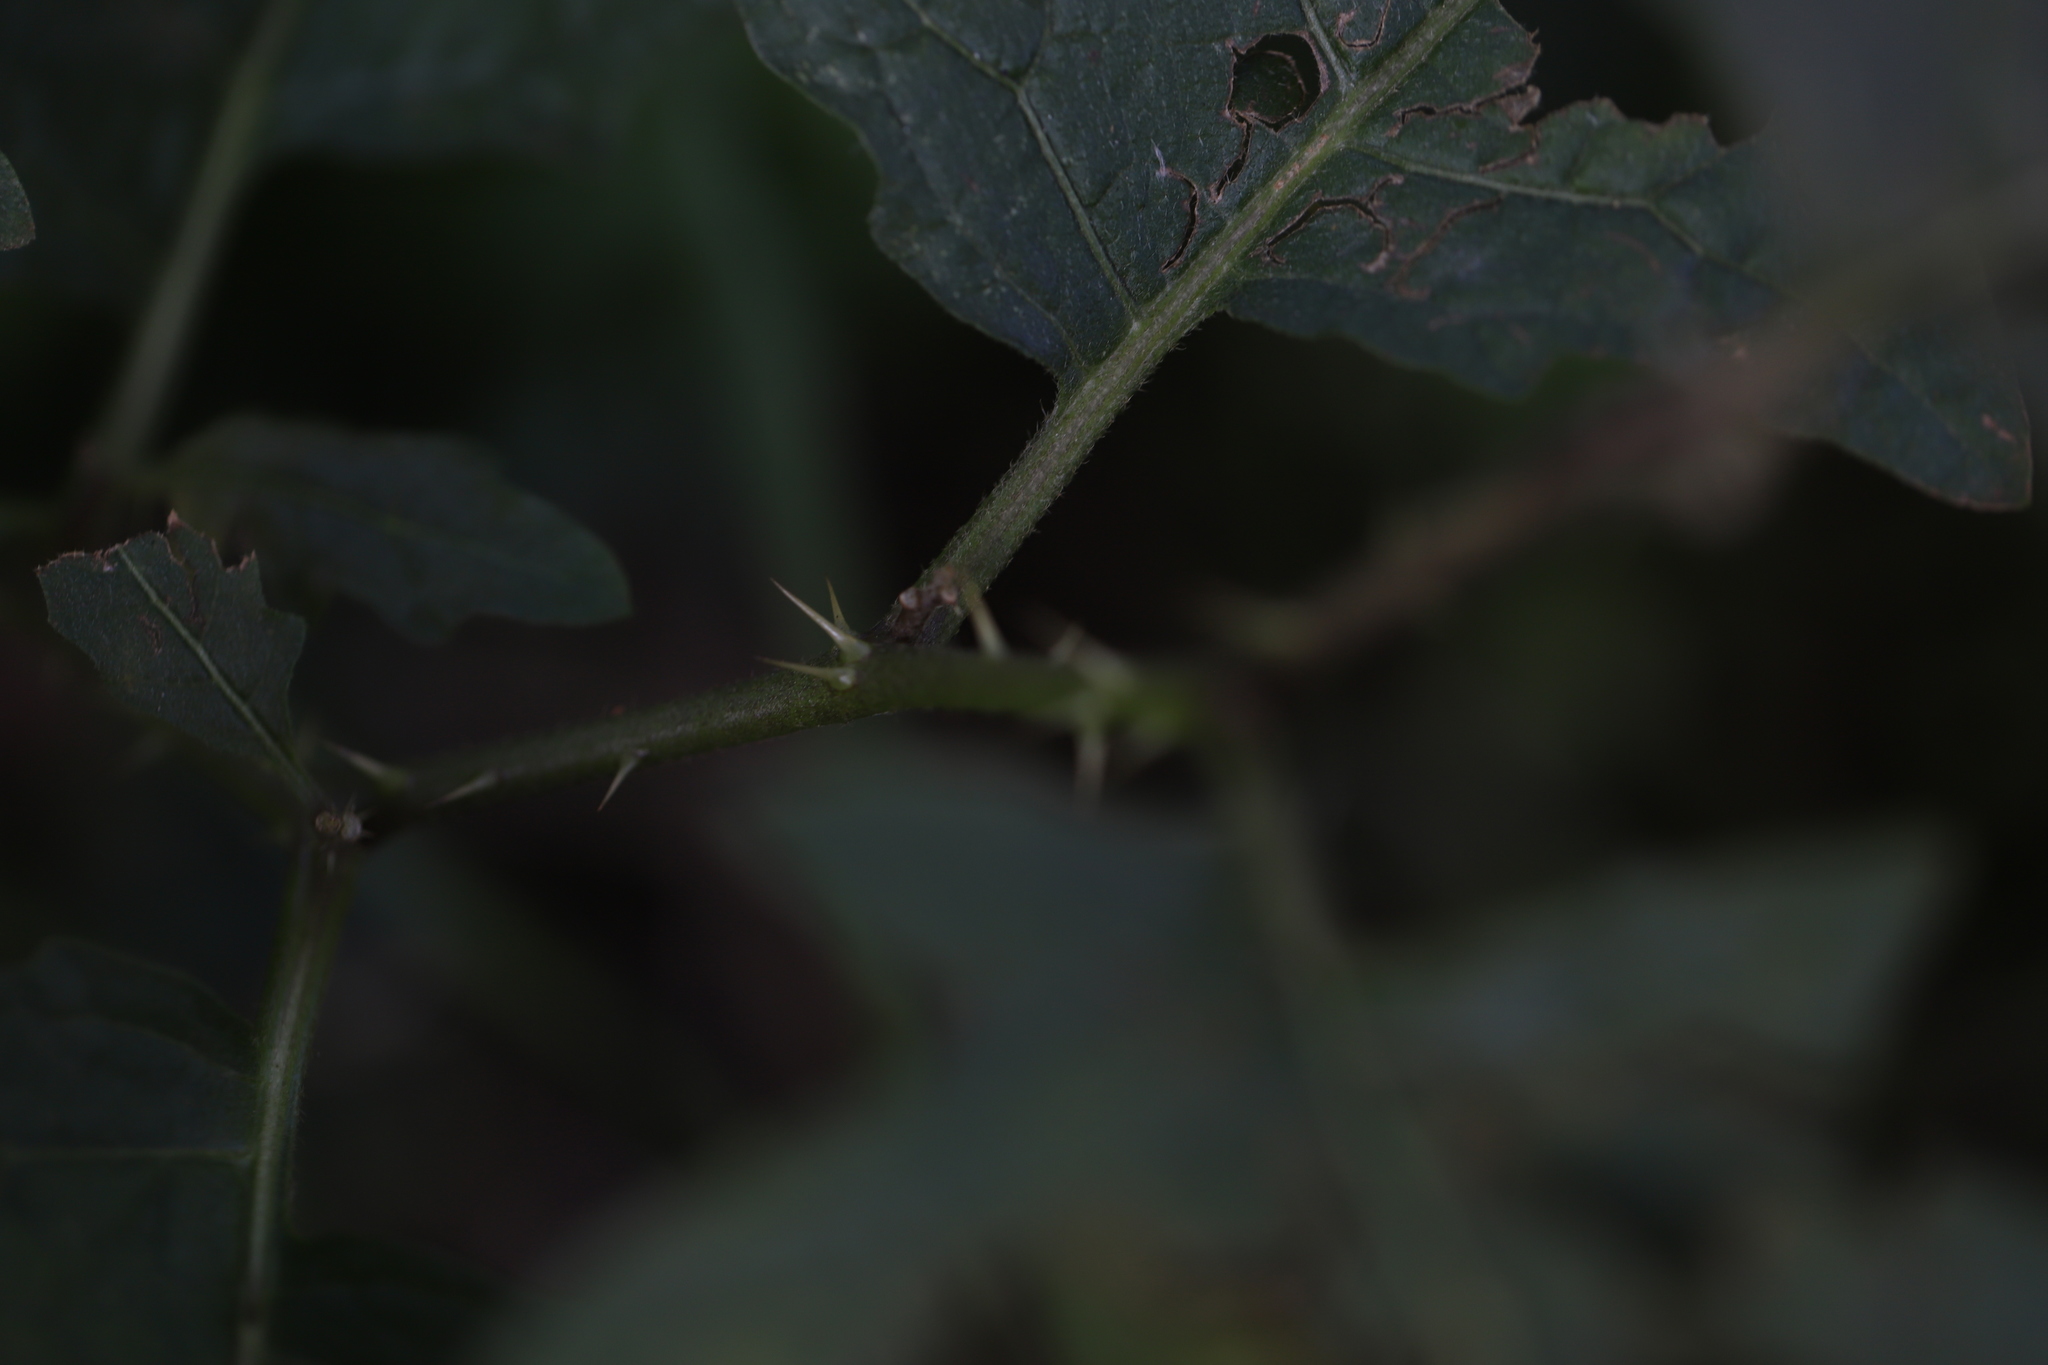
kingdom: Plantae
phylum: Tracheophyta
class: Magnoliopsida
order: Solanales
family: Solanaceae
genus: Solanum
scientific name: Solanum carolinense
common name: Horse-nettle
